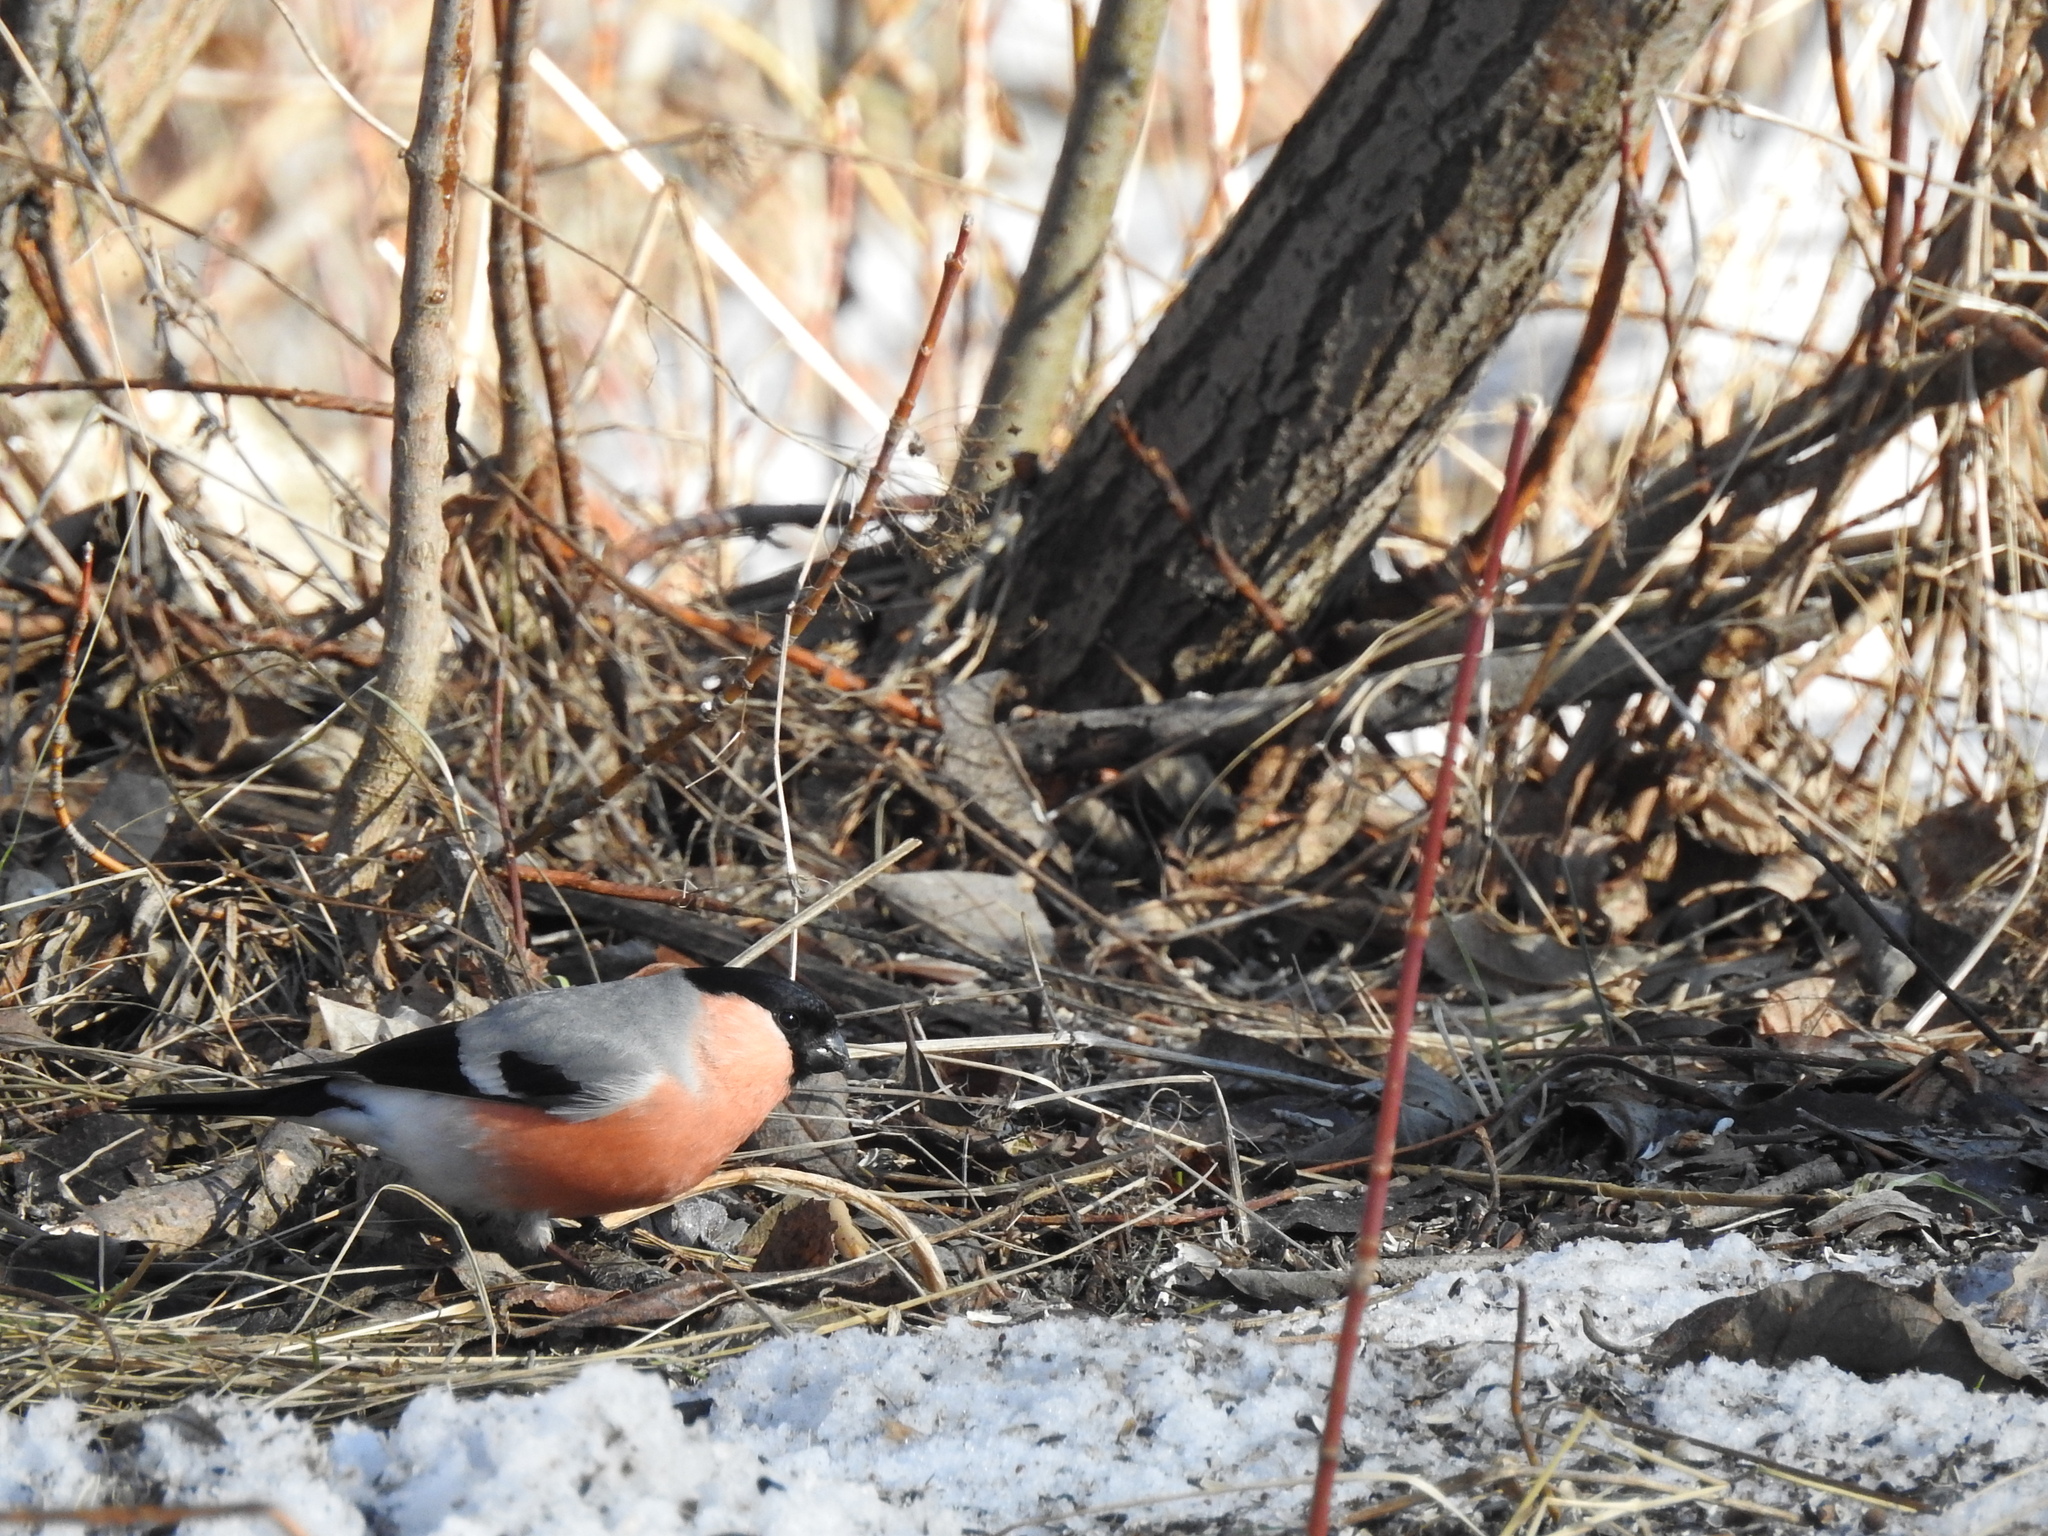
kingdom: Animalia
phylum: Chordata
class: Aves
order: Passeriformes
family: Fringillidae
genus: Pyrrhula
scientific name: Pyrrhula pyrrhula
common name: Eurasian bullfinch
